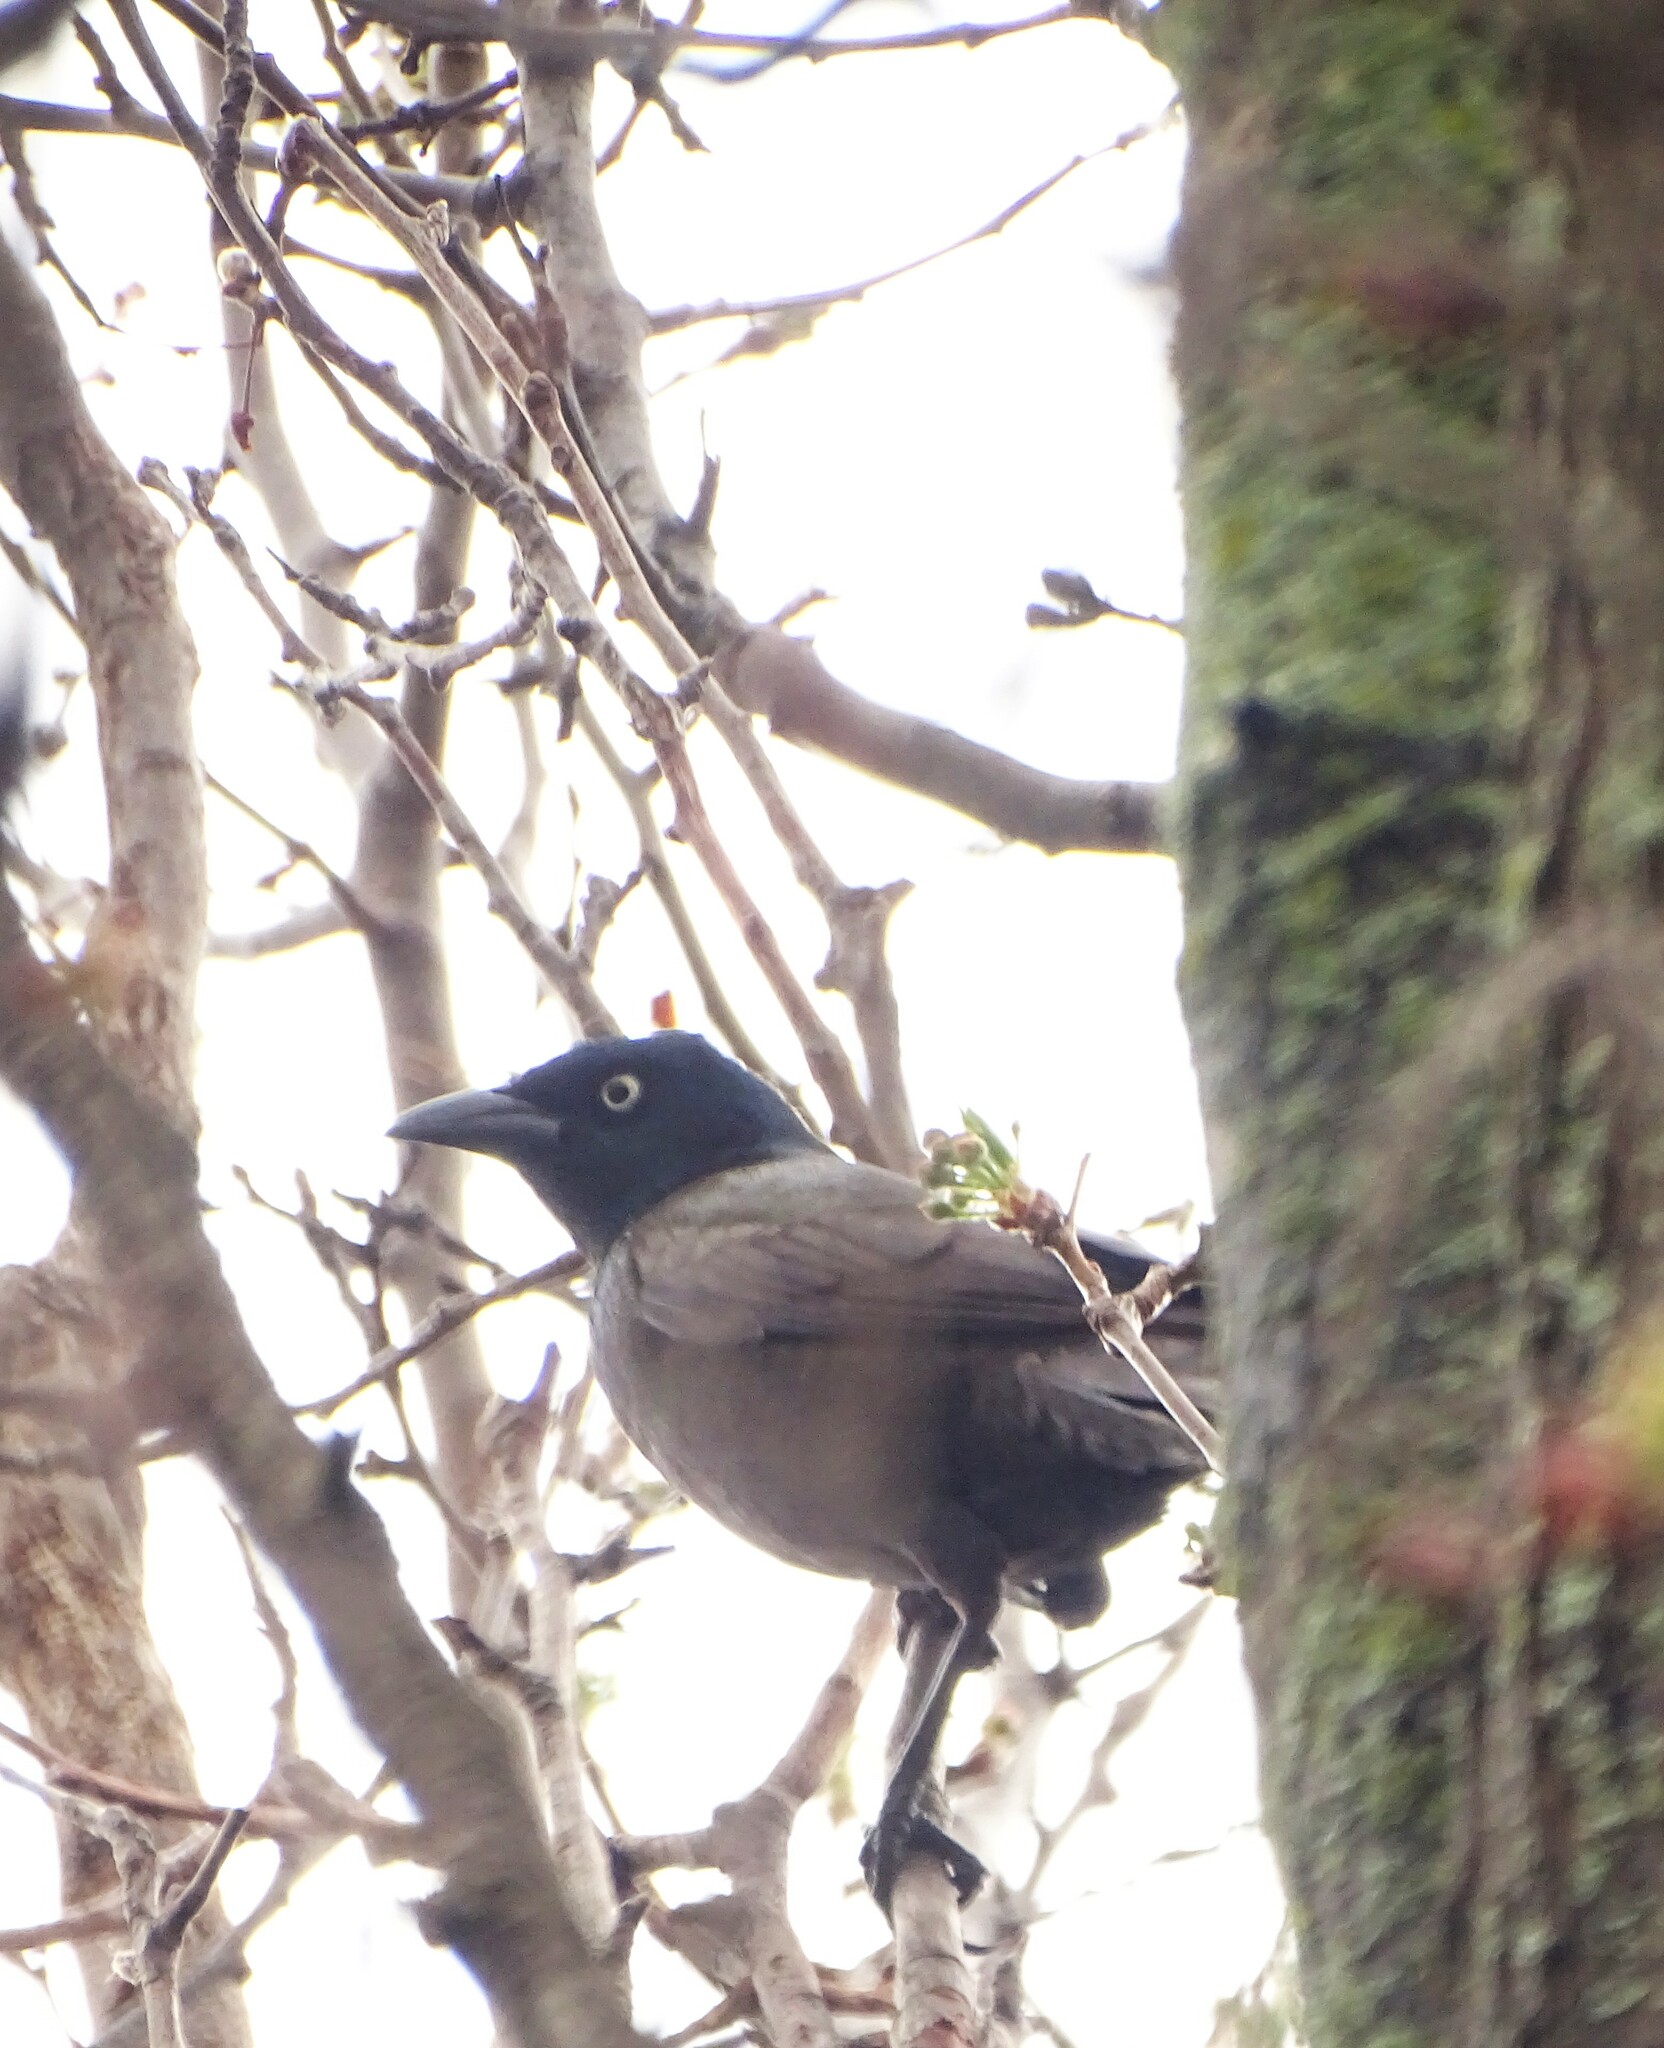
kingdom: Animalia
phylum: Chordata
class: Aves
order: Passeriformes
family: Icteridae
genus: Quiscalus
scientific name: Quiscalus quiscula
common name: Common grackle
